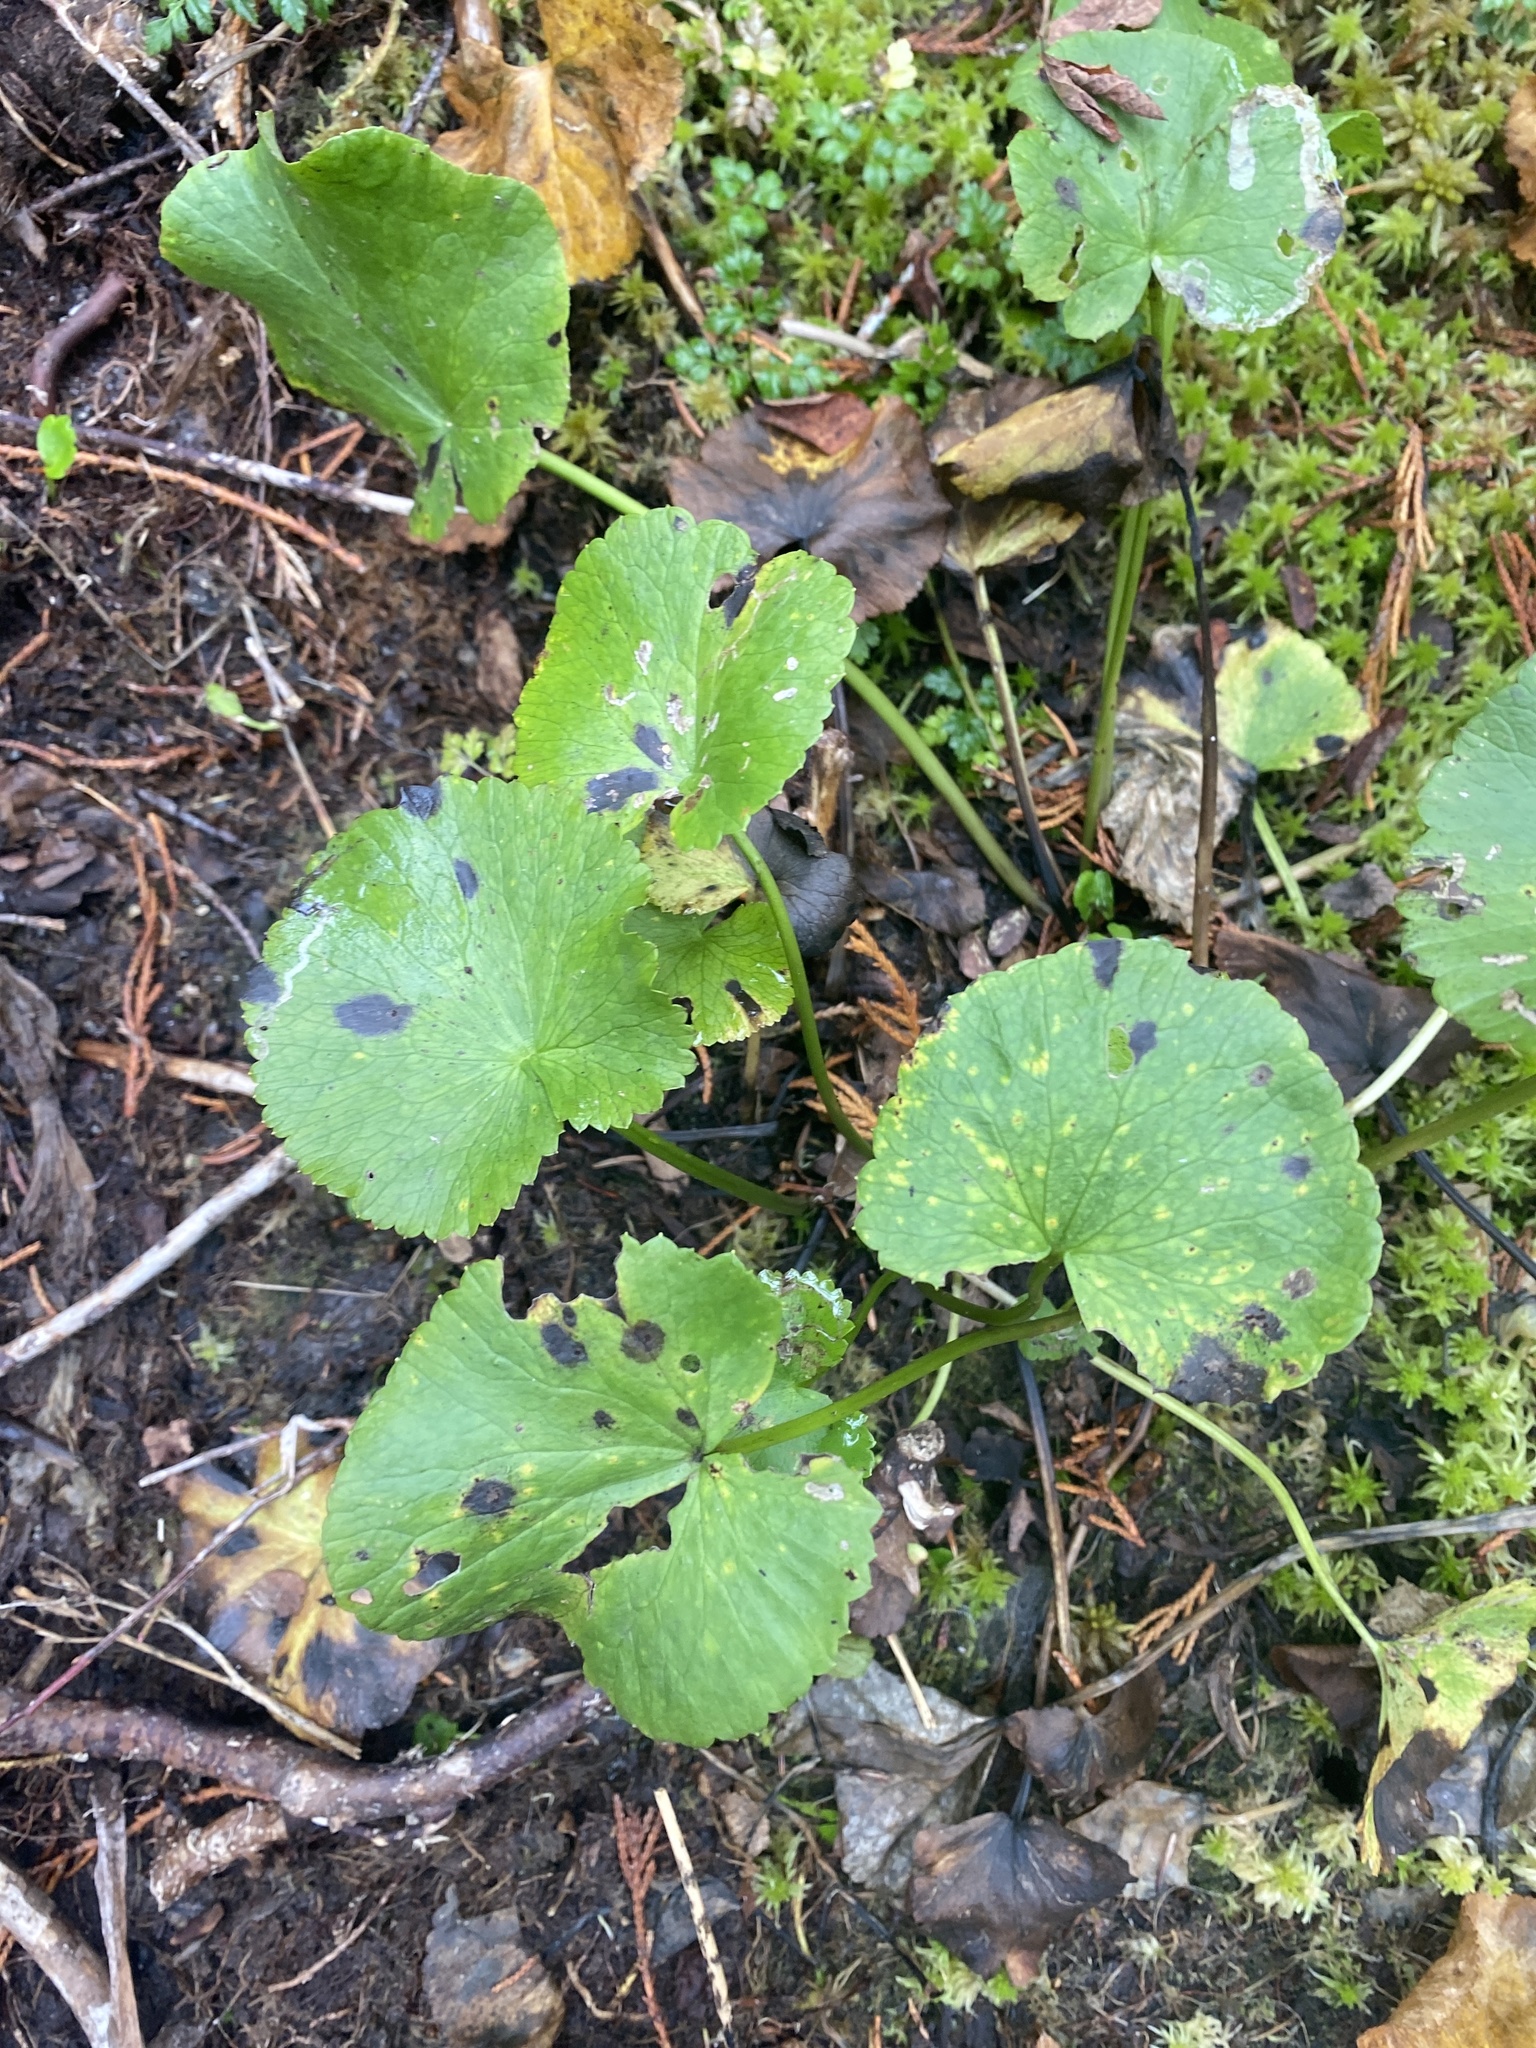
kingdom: Plantae
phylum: Tracheophyta
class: Magnoliopsida
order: Ranunculales
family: Ranunculaceae
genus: Caltha
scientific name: Caltha palustris
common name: Marsh marigold
